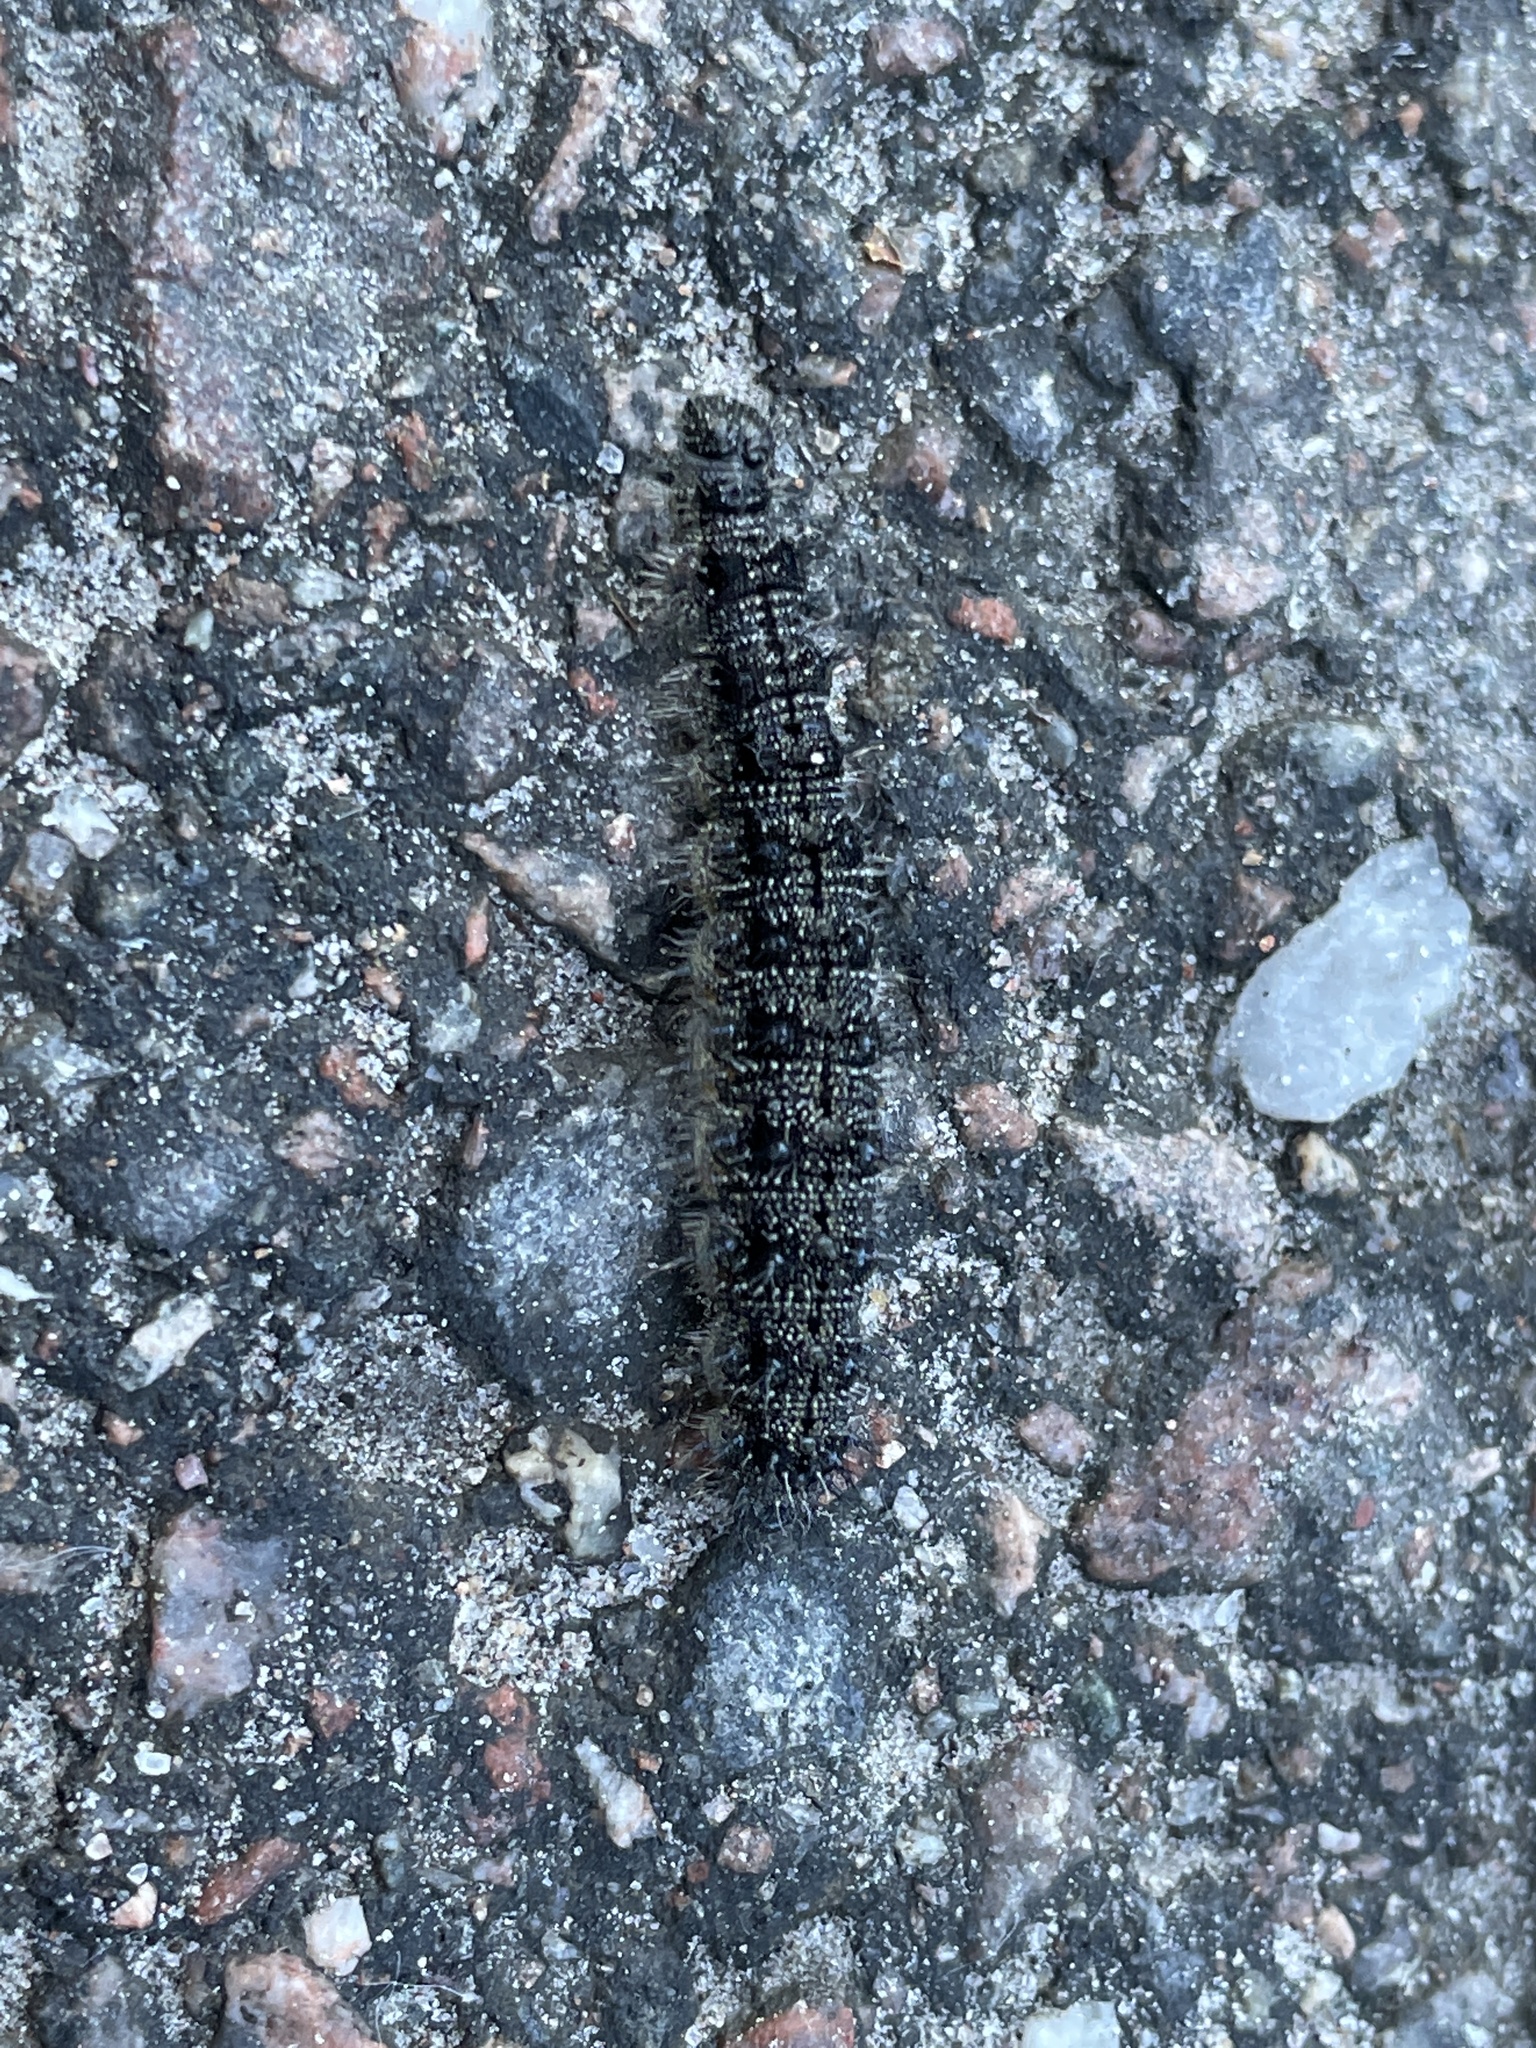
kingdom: Animalia
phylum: Arthropoda
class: Insecta
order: Lepidoptera
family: Nymphalidae
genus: Aglais
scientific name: Aglais urticae
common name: Small tortoiseshell
